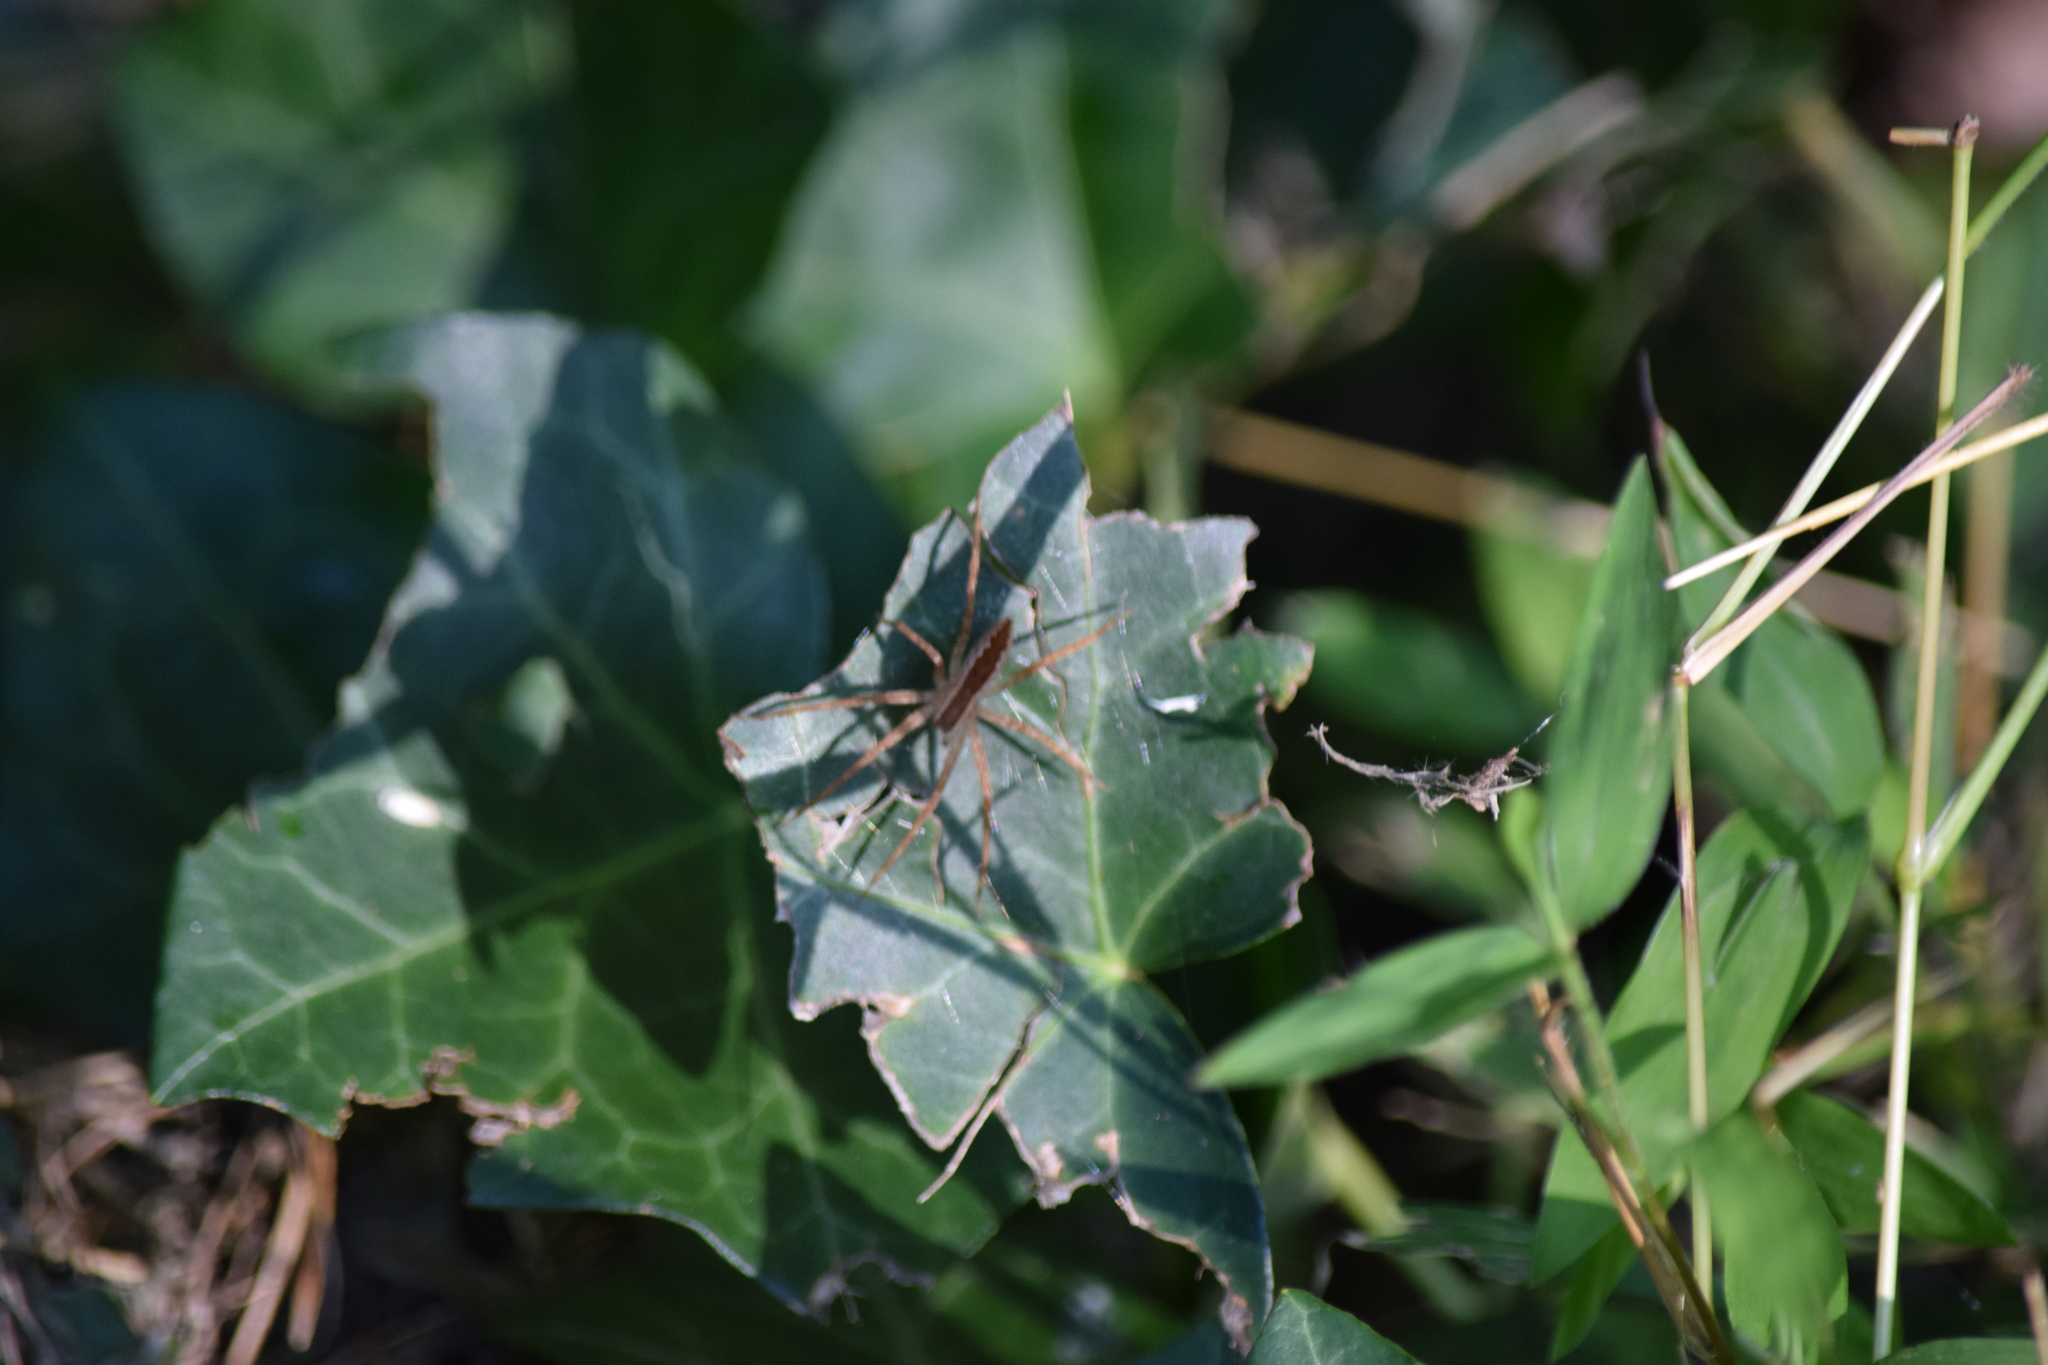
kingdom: Animalia
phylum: Arthropoda
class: Arachnida
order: Araneae
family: Pisauridae
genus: Pisaurina
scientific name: Pisaurina mira
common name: American nursery web spider
